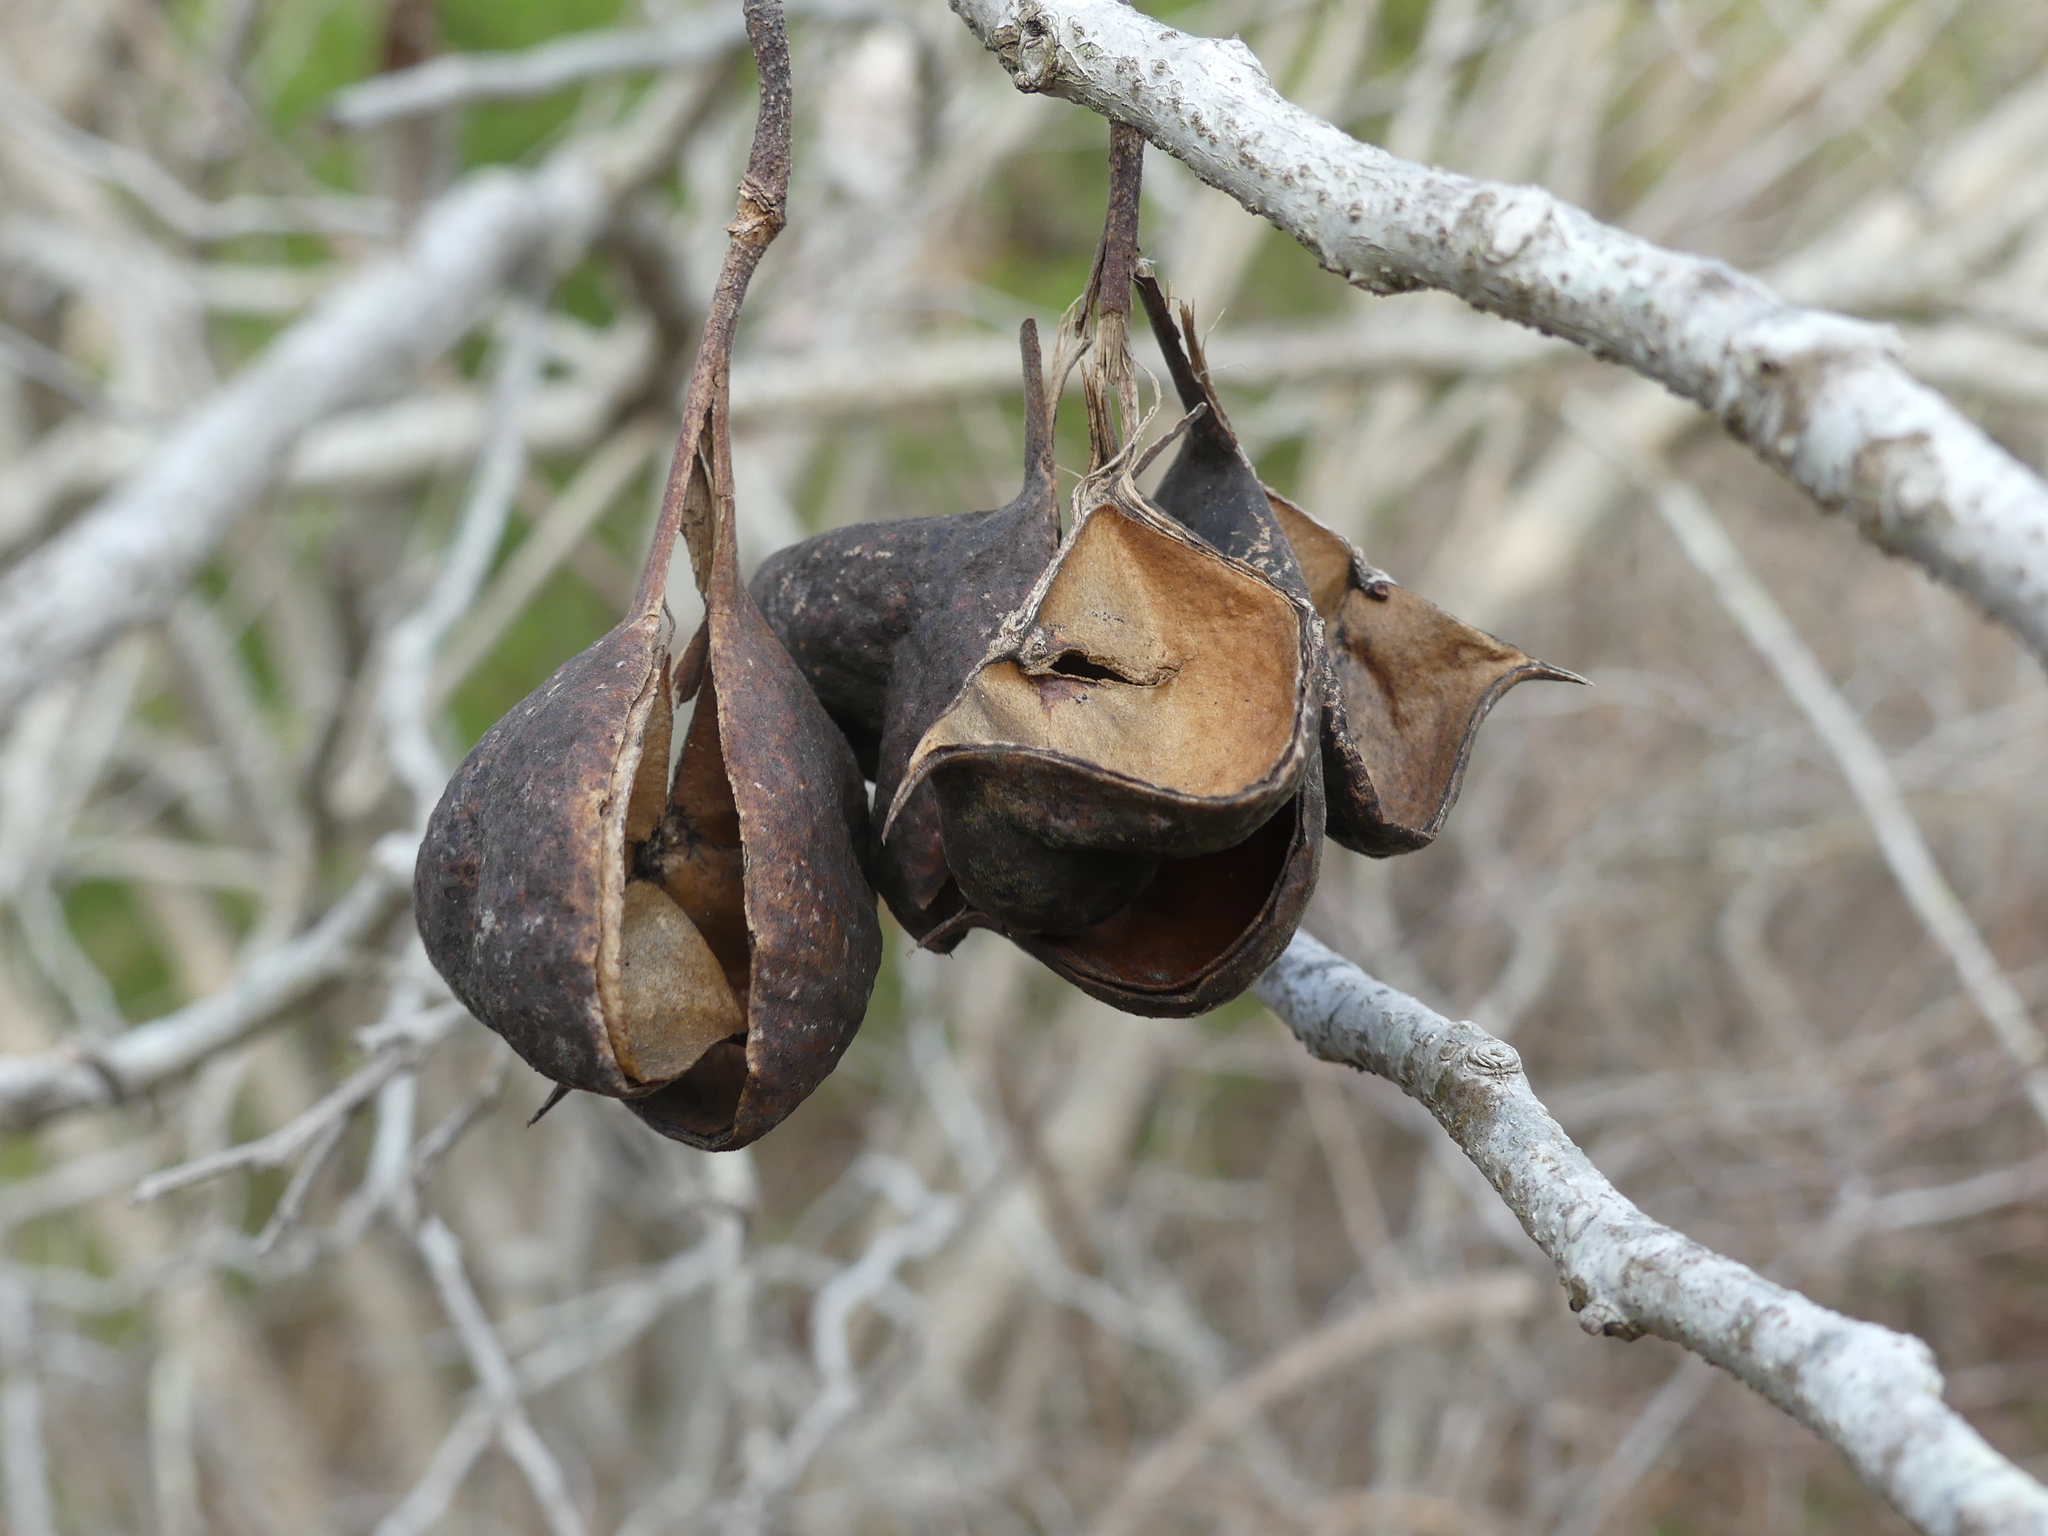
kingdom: Plantae
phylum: Tracheophyta
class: Magnoliopsida
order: Sapindales
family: Sapindaceae
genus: Ungnadia
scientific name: Ungnadia speciosa
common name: Texas-buckeye
